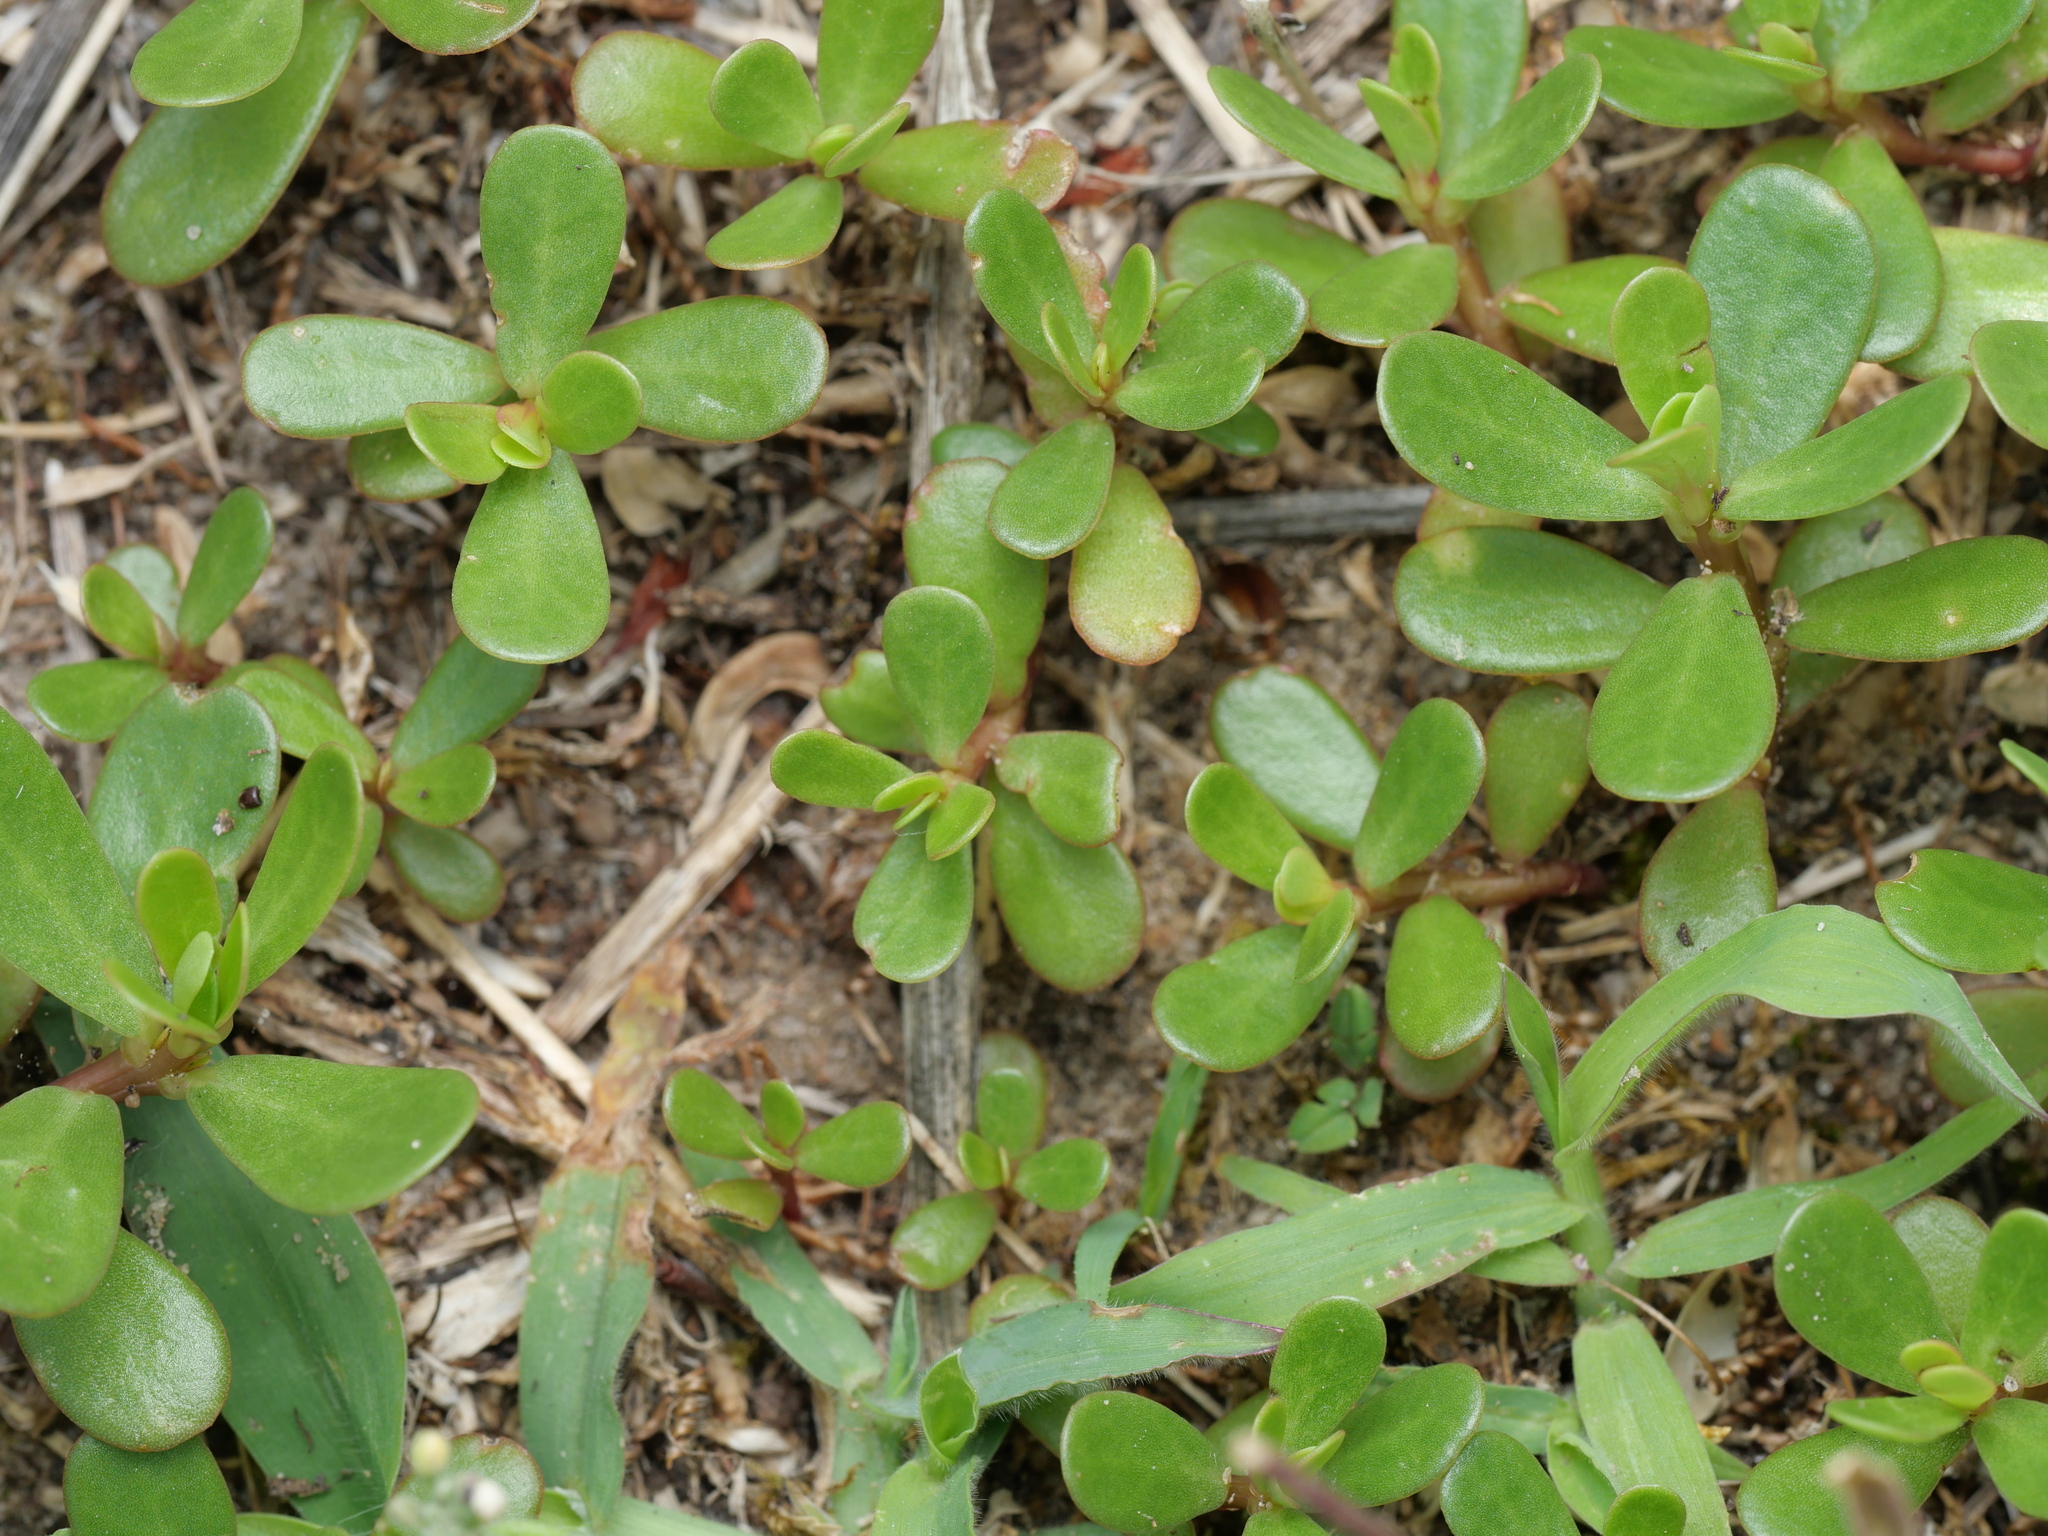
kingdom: Plantae
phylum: Tracheophyta
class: Magnoliopsida
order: Caryophyllales
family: Portulacaceae
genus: Portulaca
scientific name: Portulaca oleracea
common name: Common purslane
